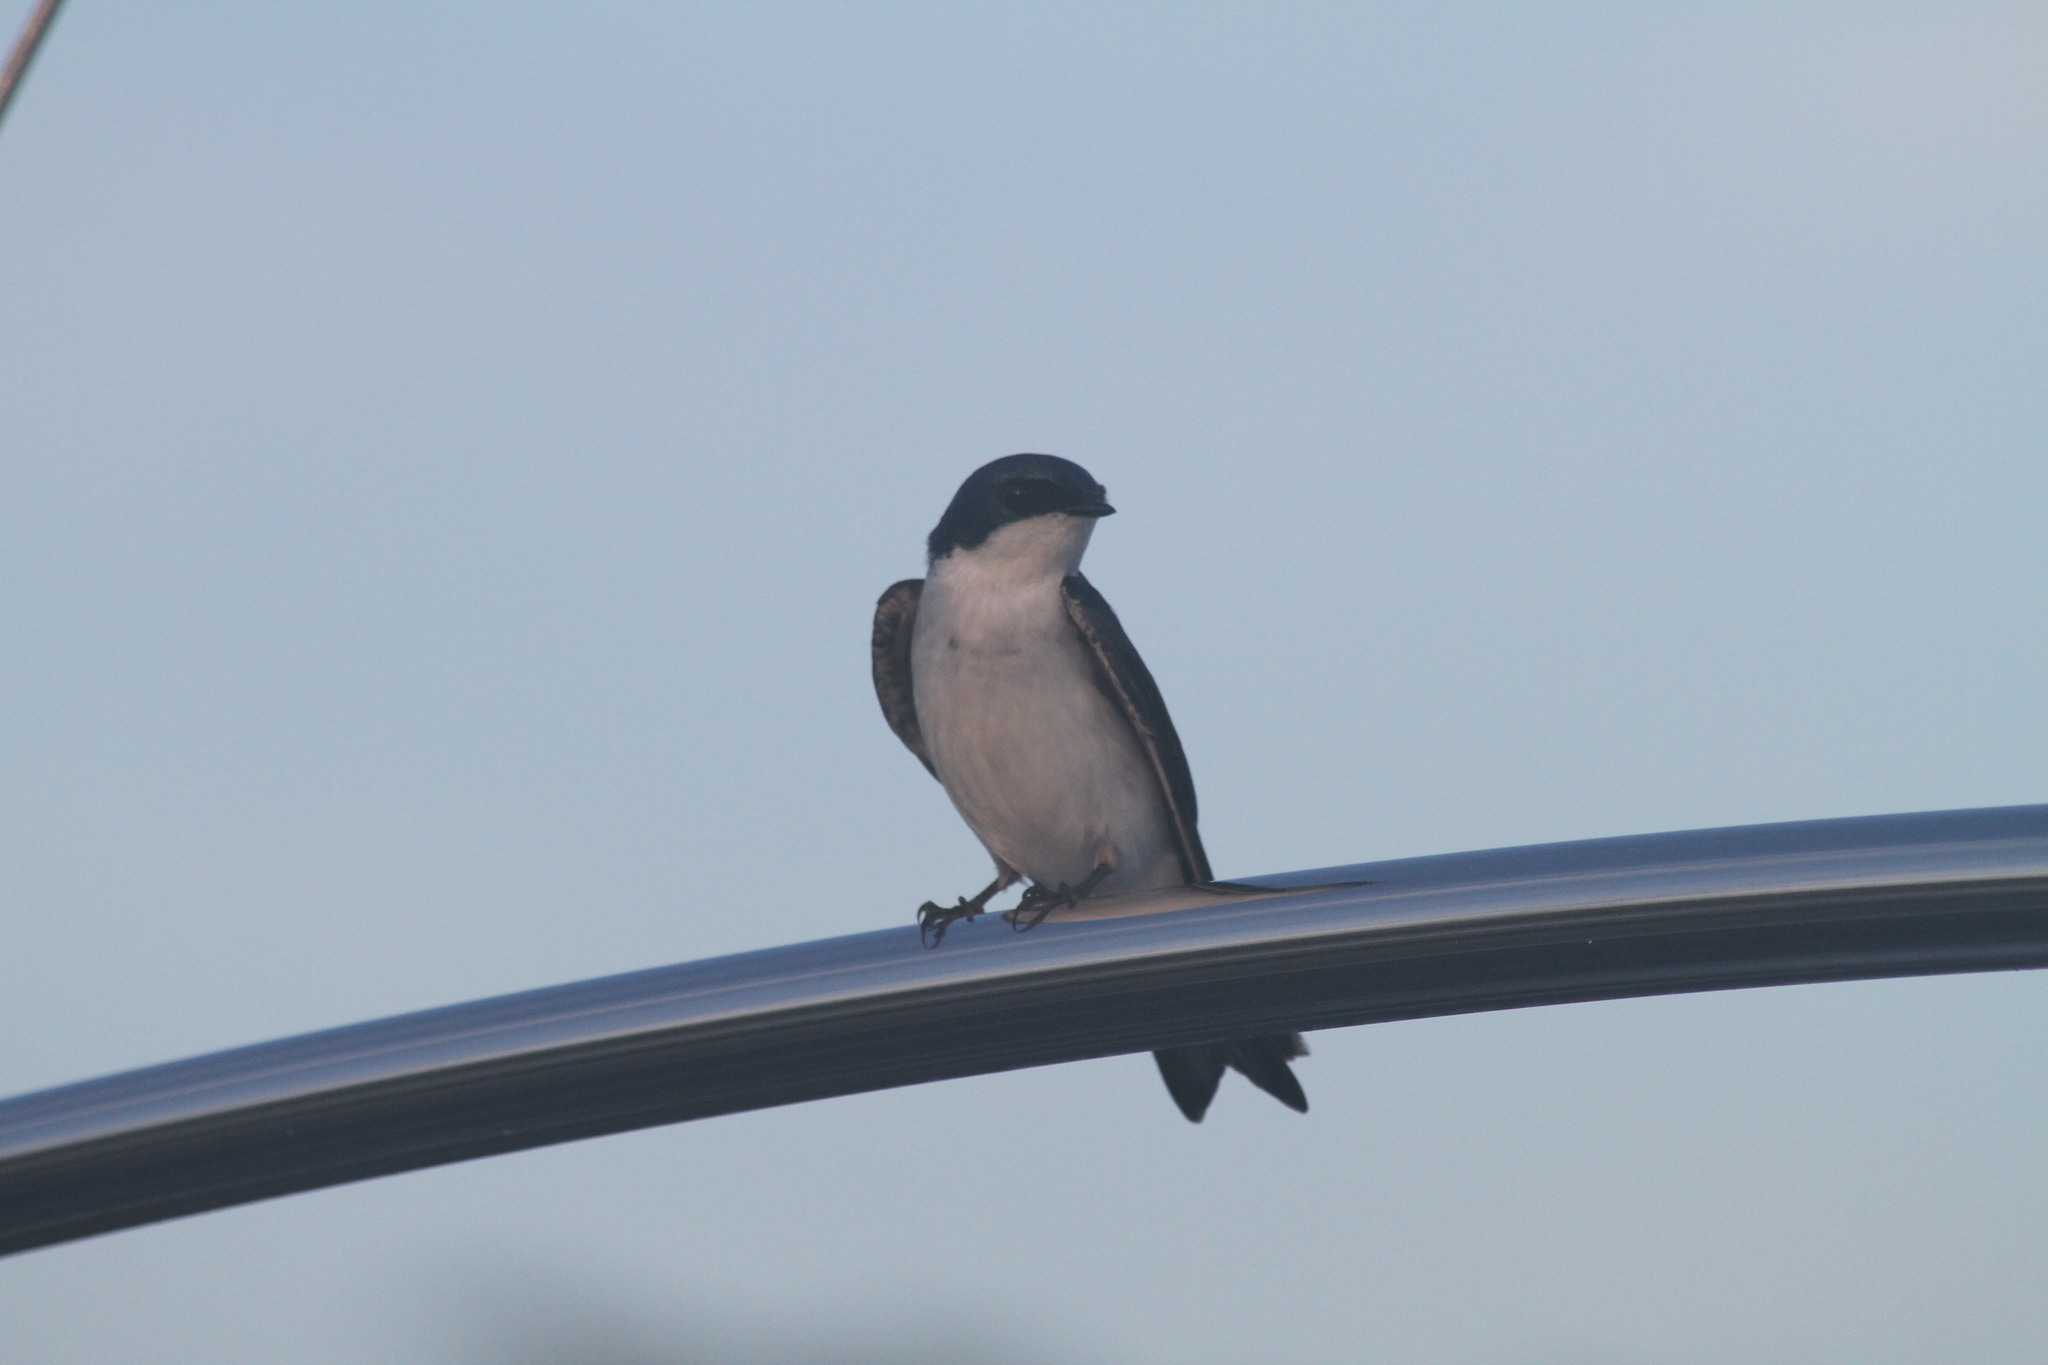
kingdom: Animalia
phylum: Chordata
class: Aves
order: Passeriformes
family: Hirundinidae
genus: Tachycineta
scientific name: Tachycineta bicolor
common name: Tree swallow
